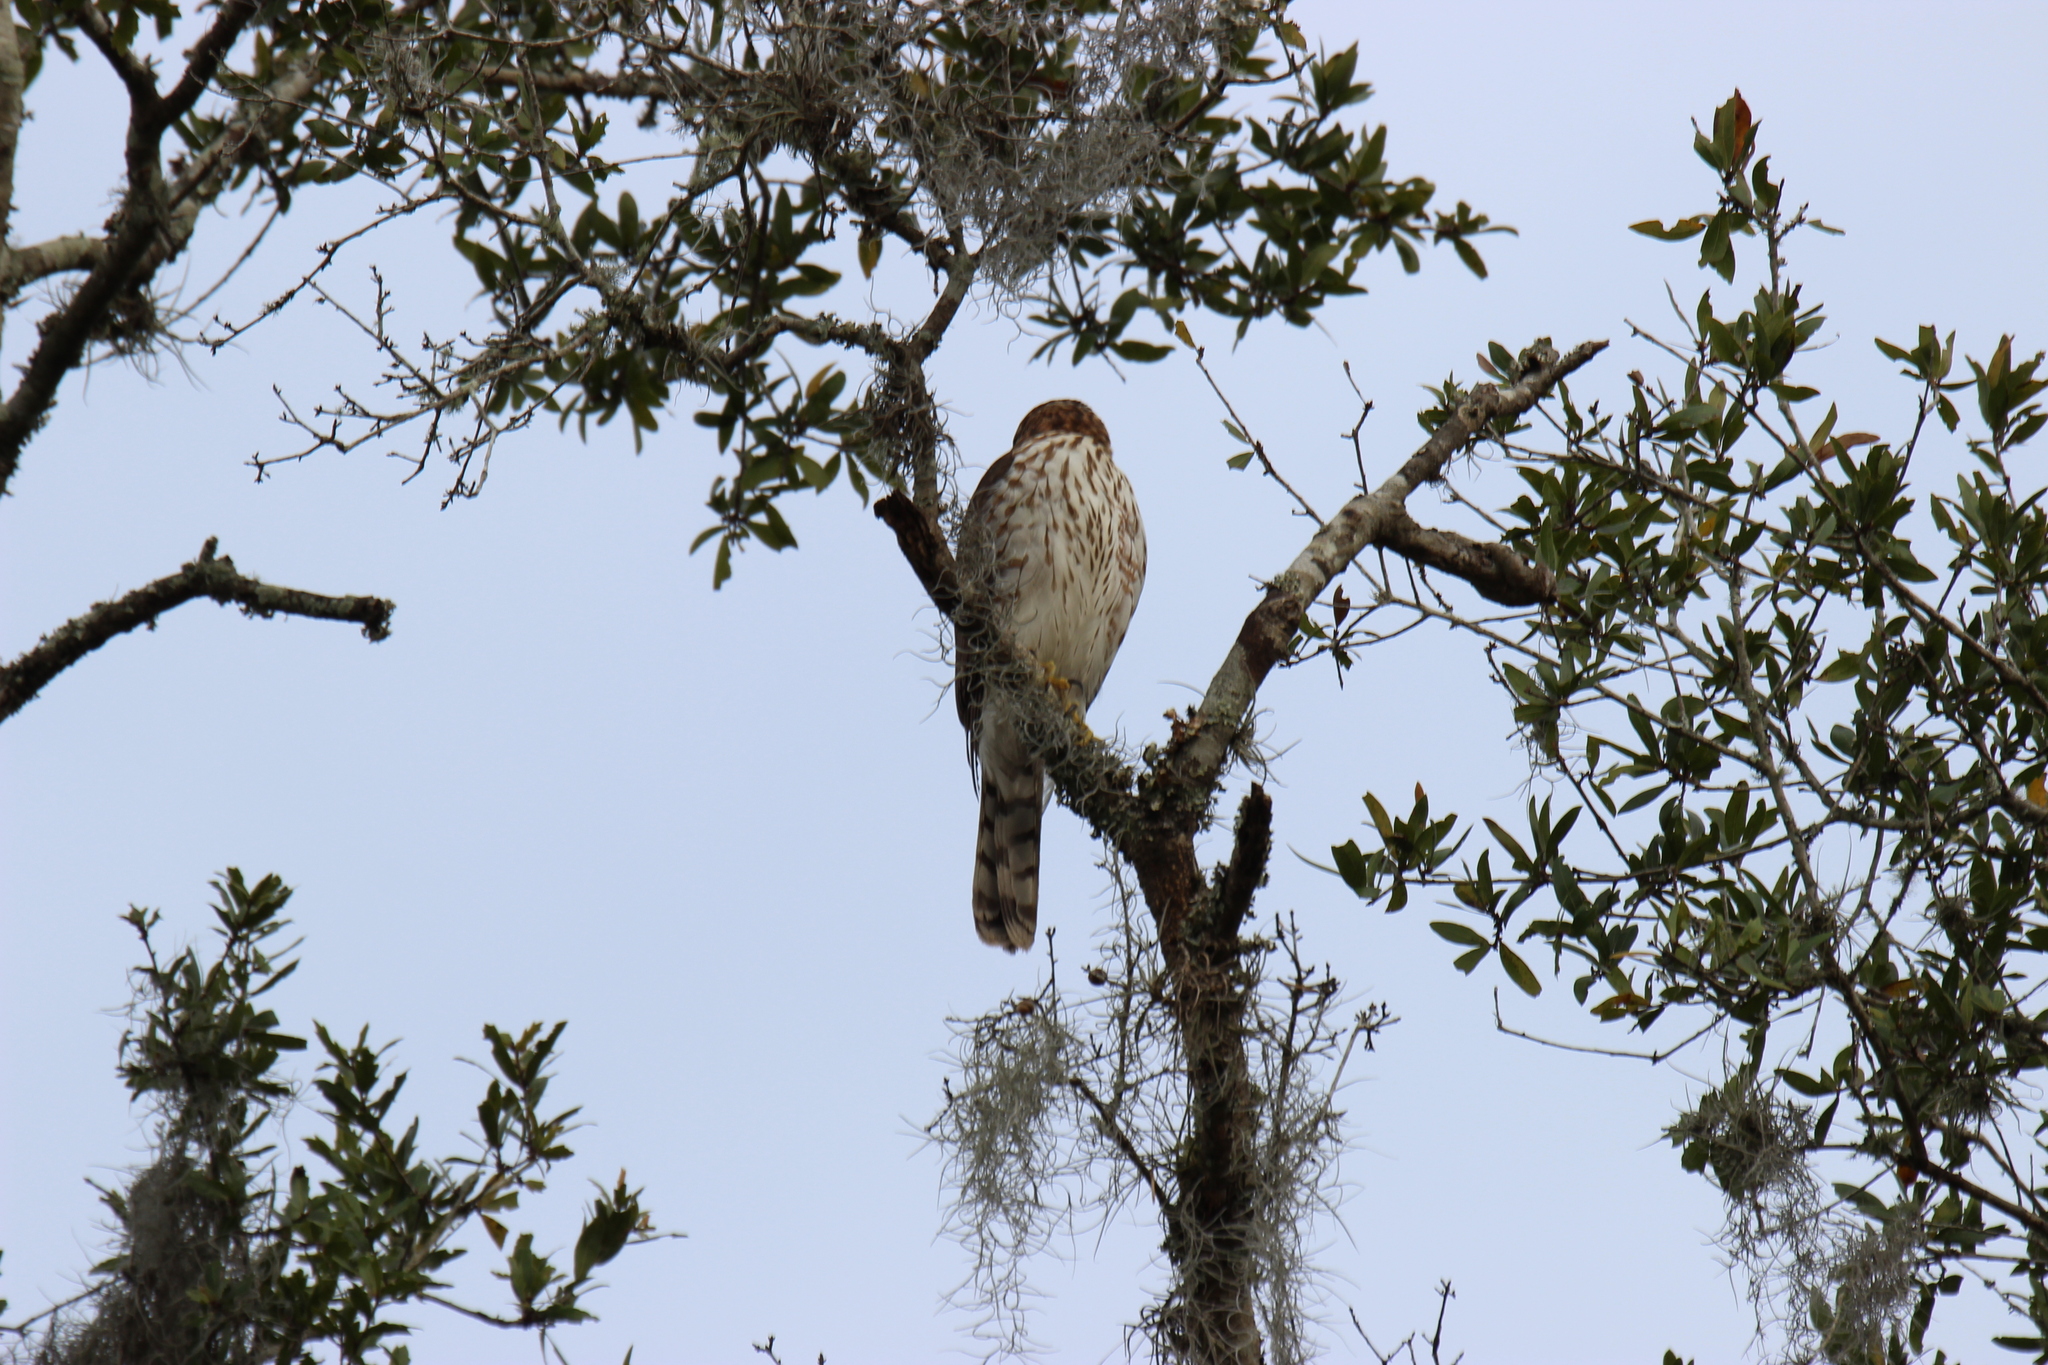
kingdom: Animalia
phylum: Chordata
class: Aves
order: Accipitriformes
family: Accipitridae
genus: Accipiter
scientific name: Accipiter cooperii
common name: Cooper's hawk
